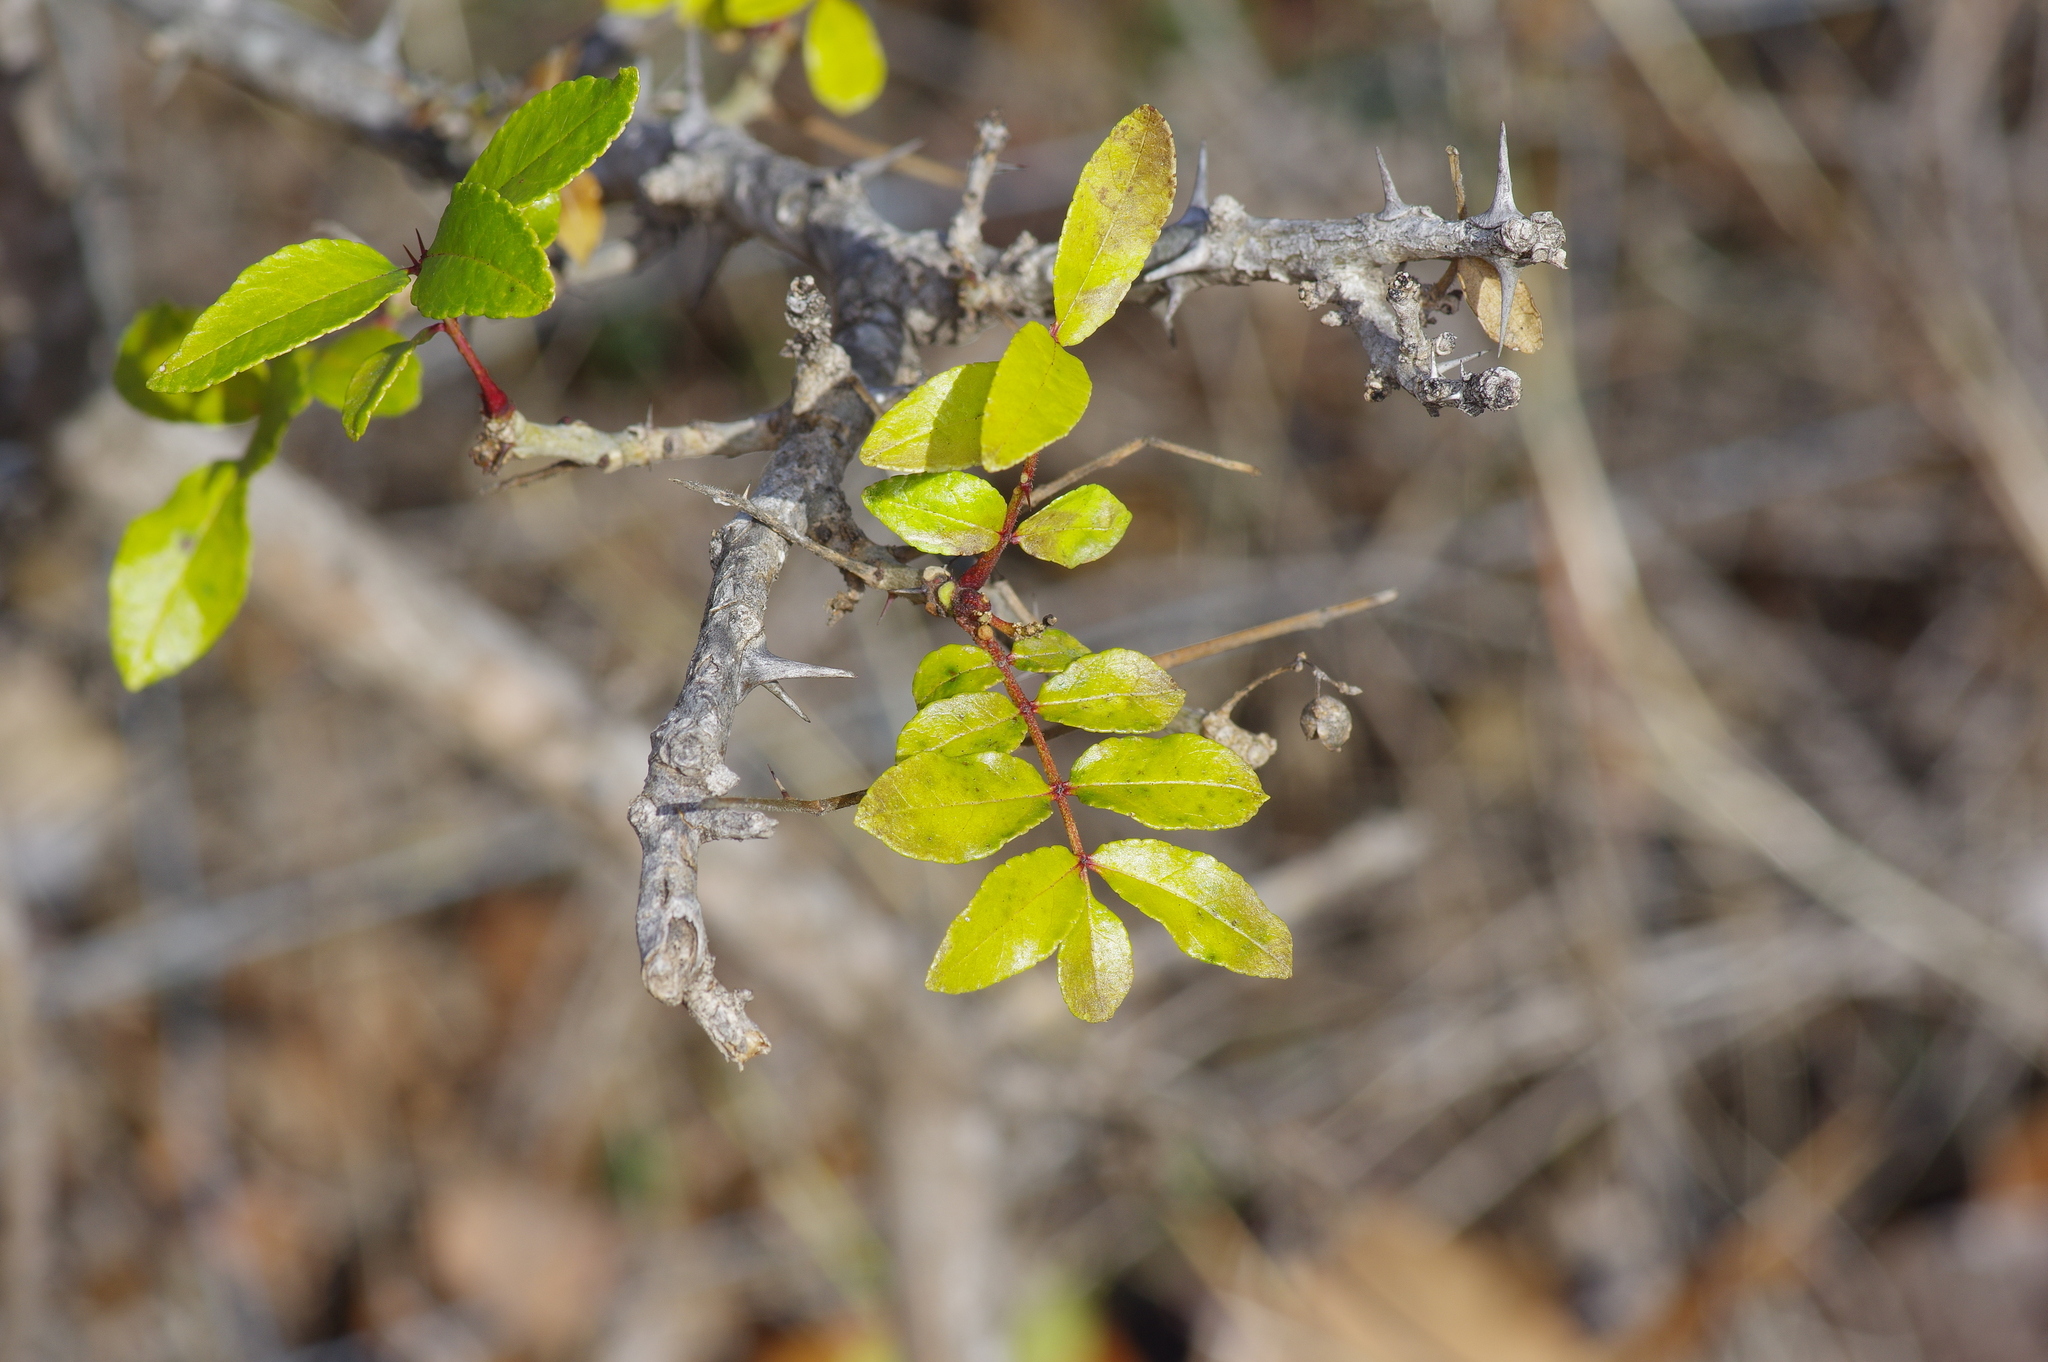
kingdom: Plantae
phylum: Tracheophyta
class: Magnoliopsida
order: Sapindales
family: Rutaceae
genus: Zanthoxylum
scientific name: Zanthoxylum clava-herculis
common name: Hercules'-club
